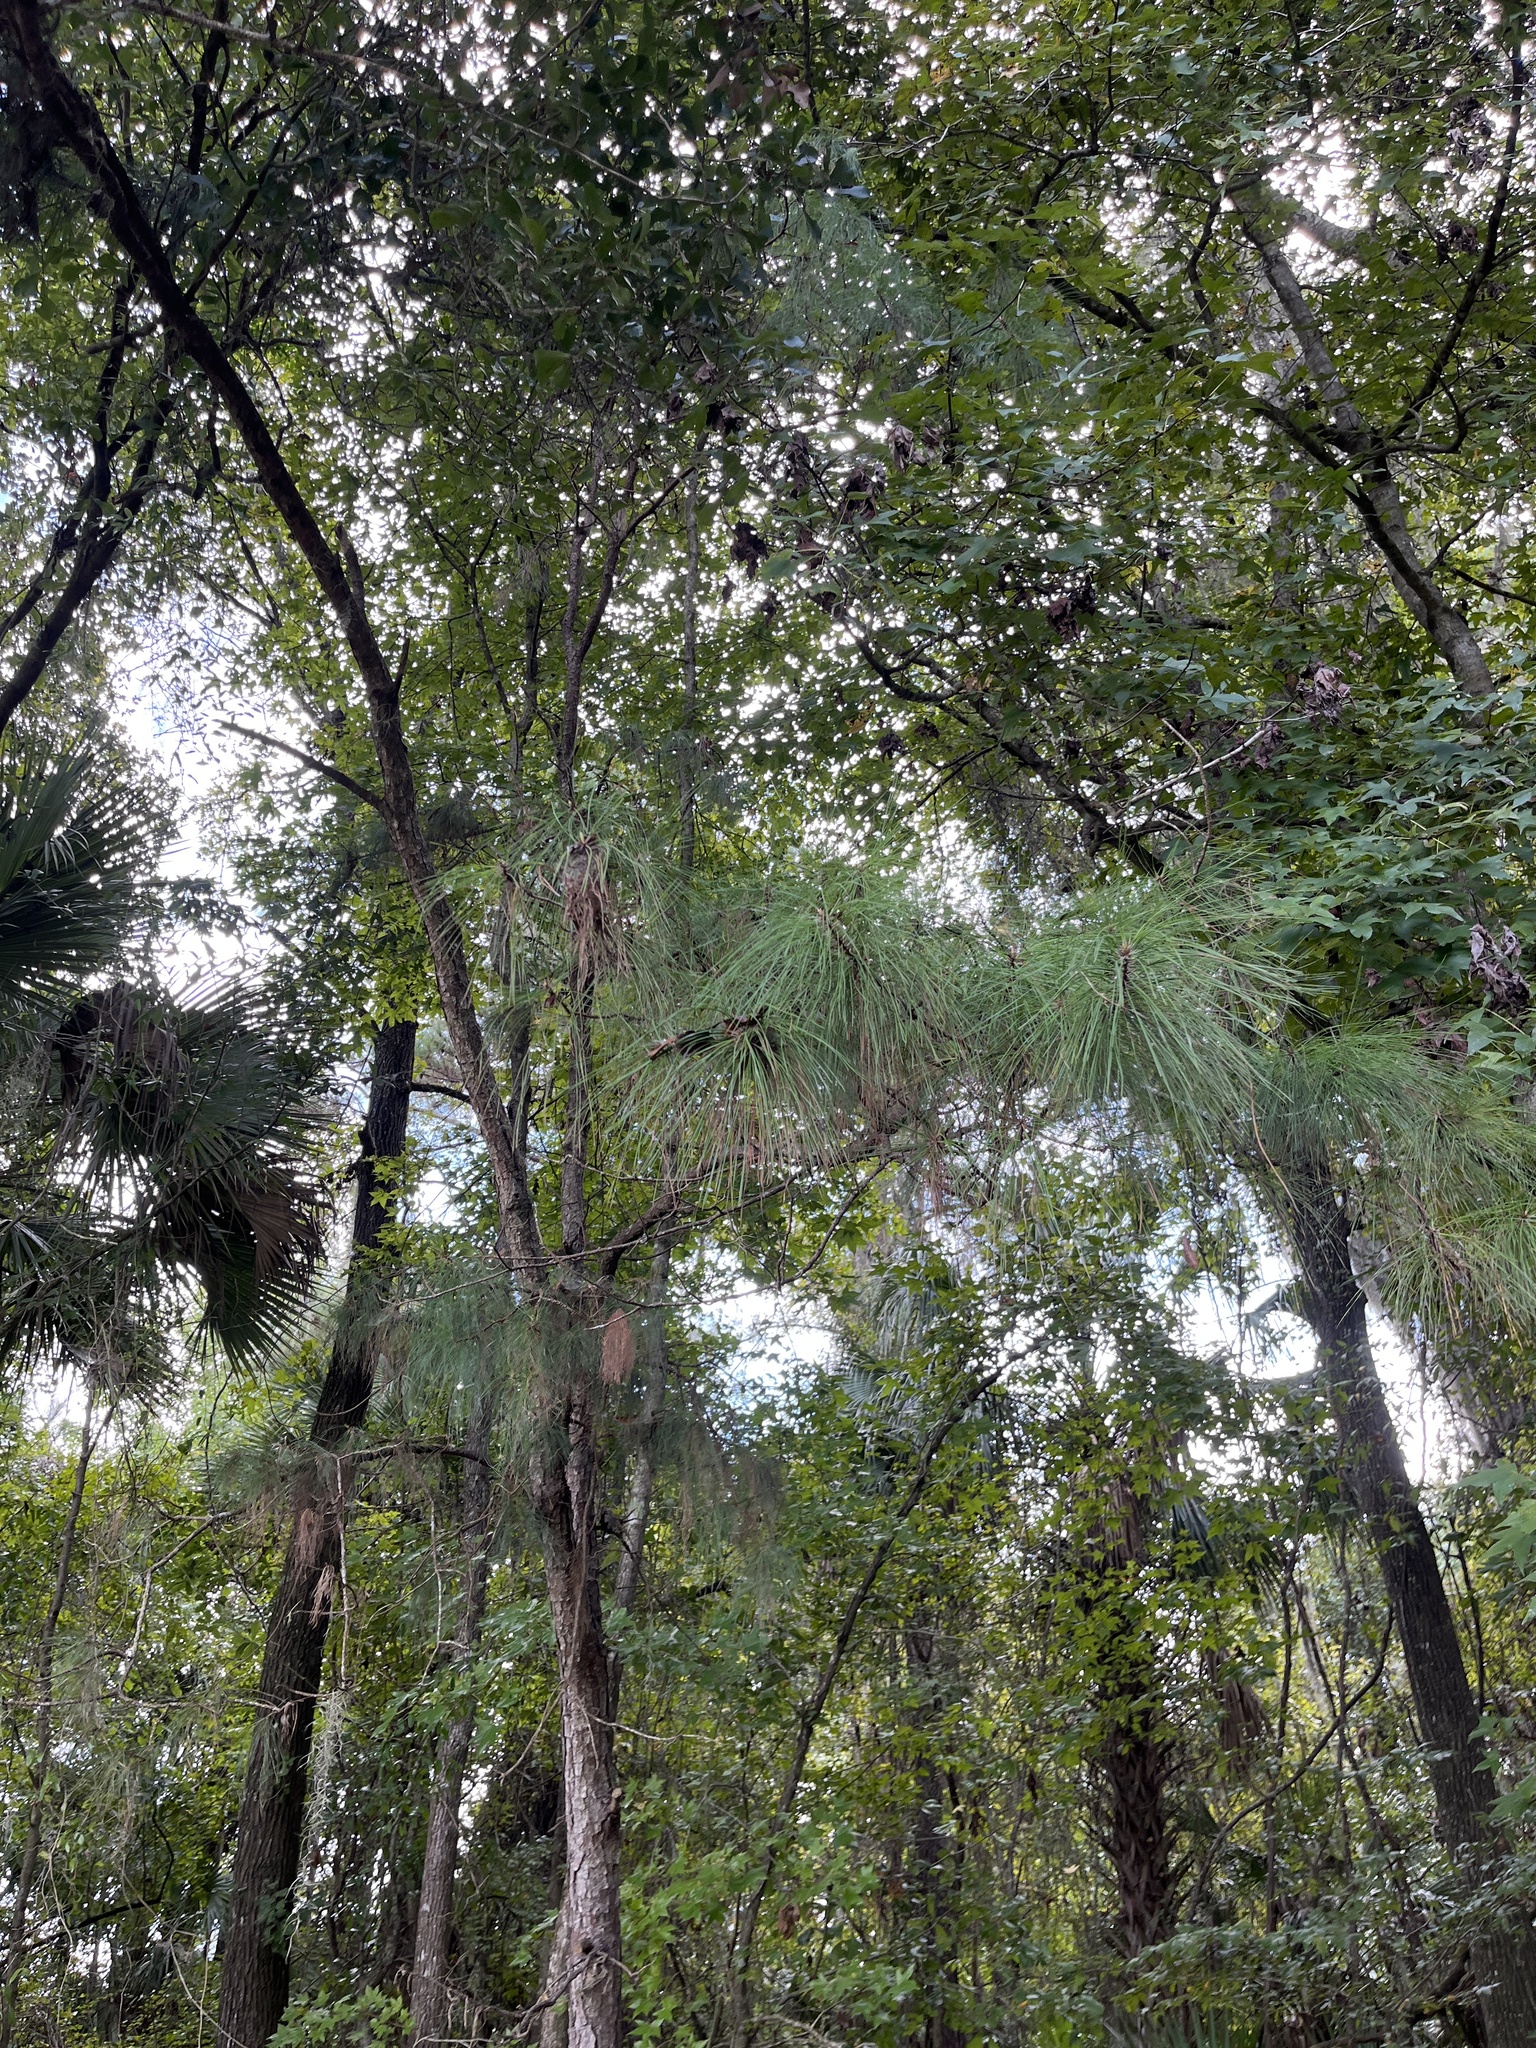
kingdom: Plantae
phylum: Tracheophyta
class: Pinopsida
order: Pinales
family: Pinaceae
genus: Pinus
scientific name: Pinus elliottii
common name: Slash pine
